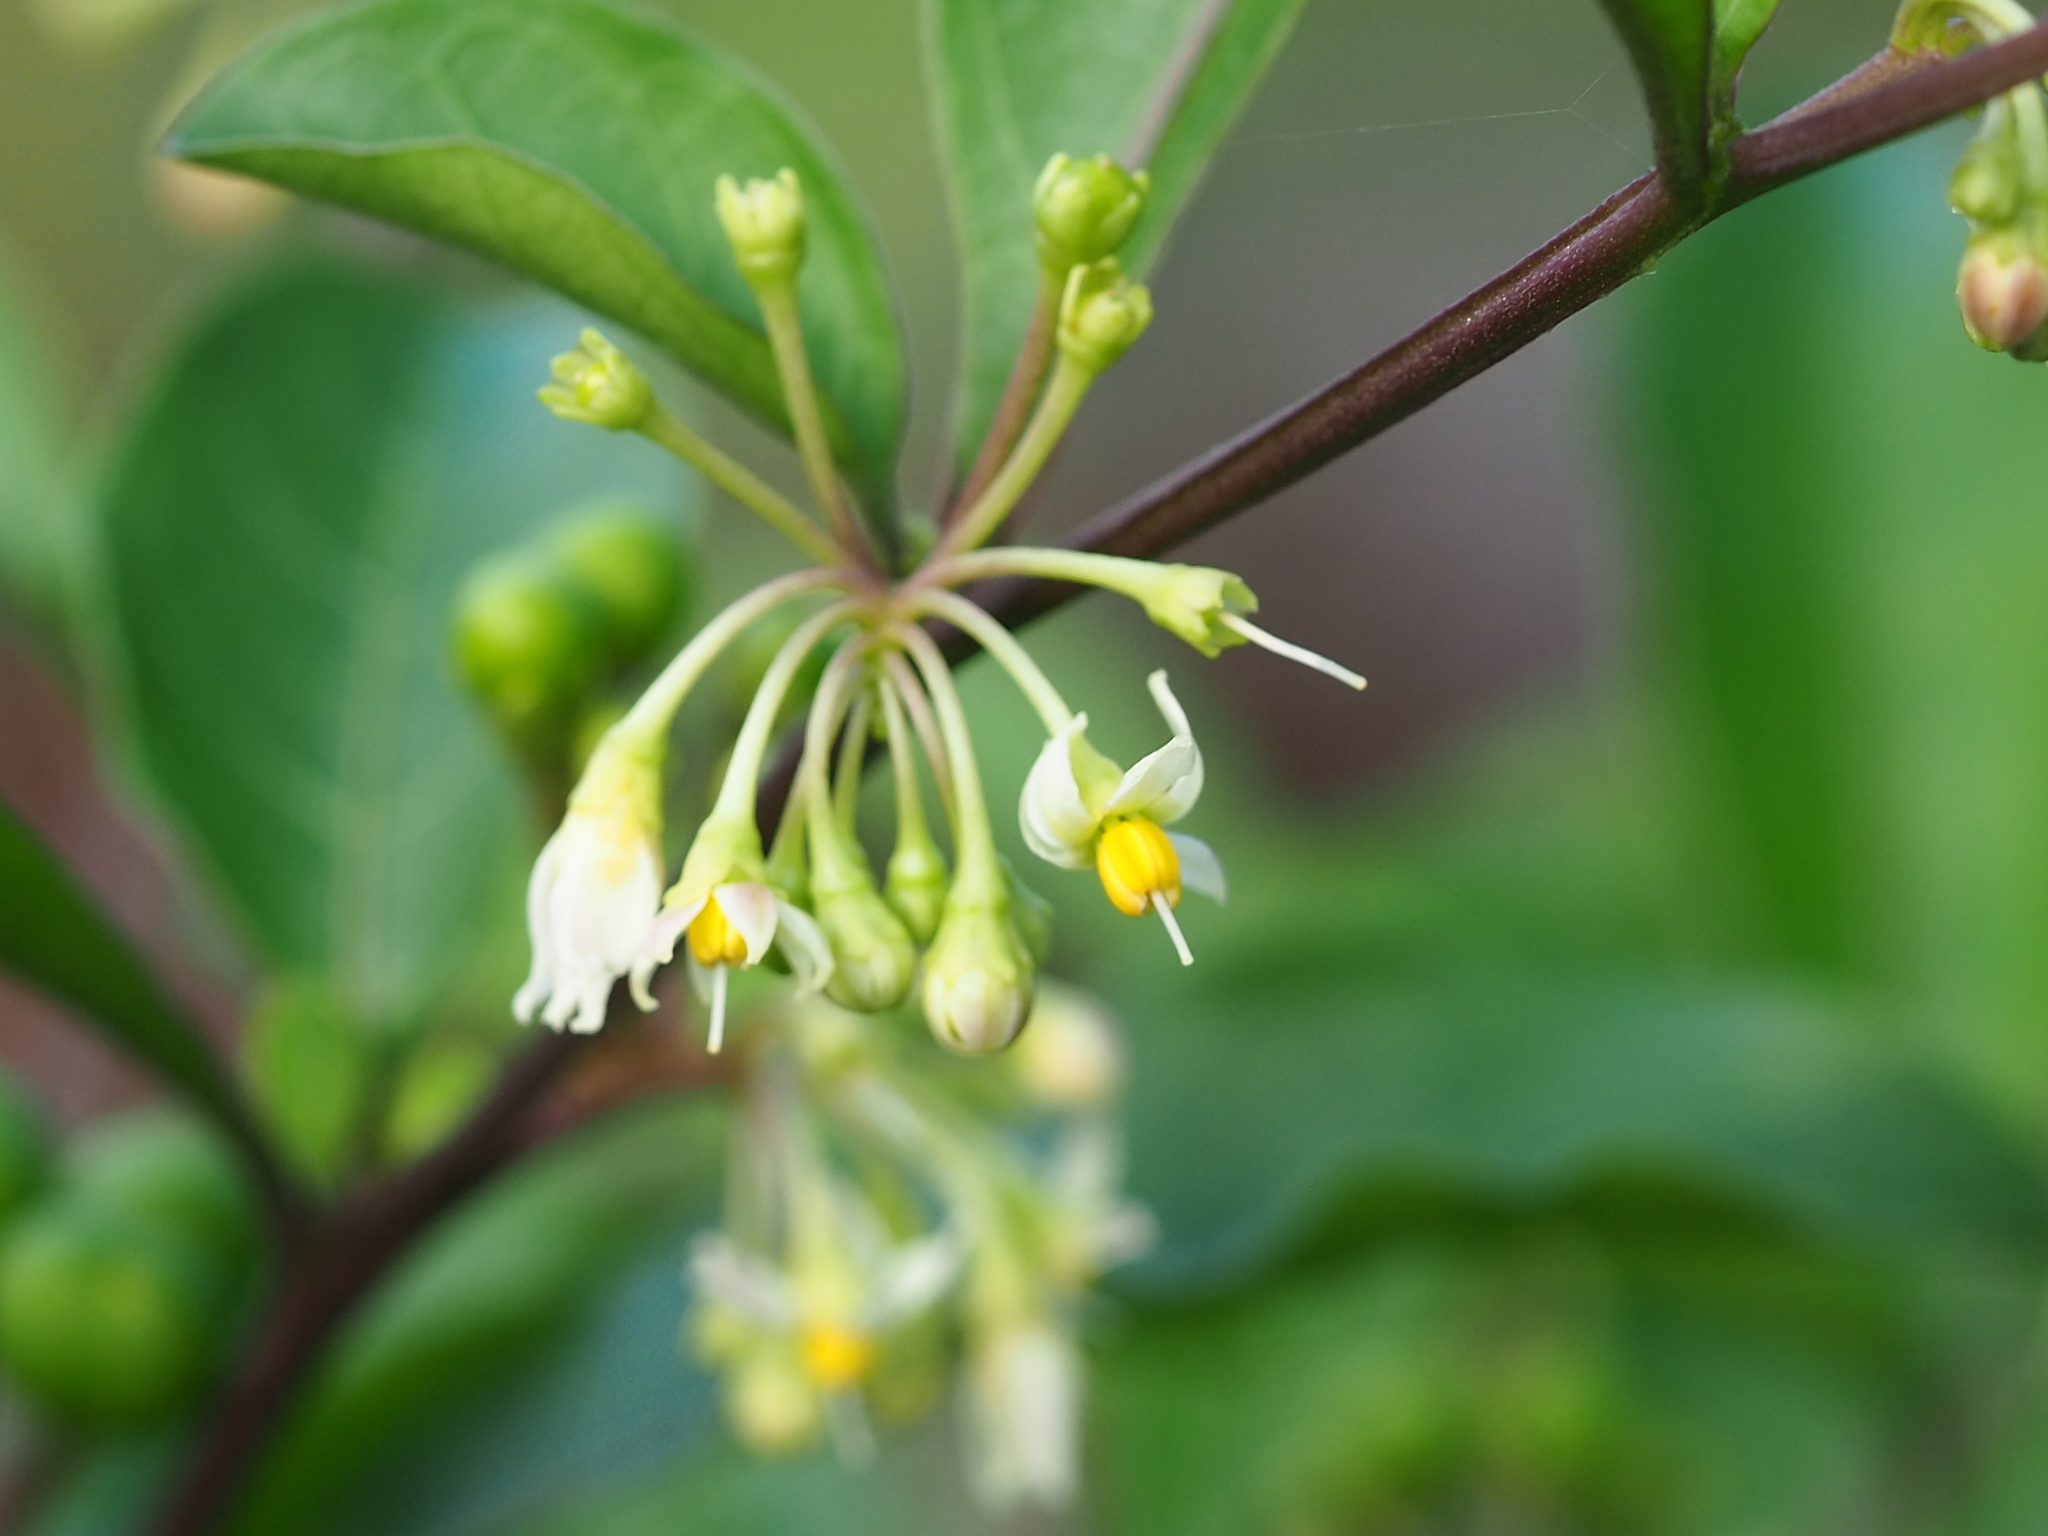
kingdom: Plantae
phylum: Tracheophyta
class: Magnoliopsida
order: Solanales
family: Solanaceae
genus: Solanum
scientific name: Solanum diphyllum
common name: Twoleaf nightshade
